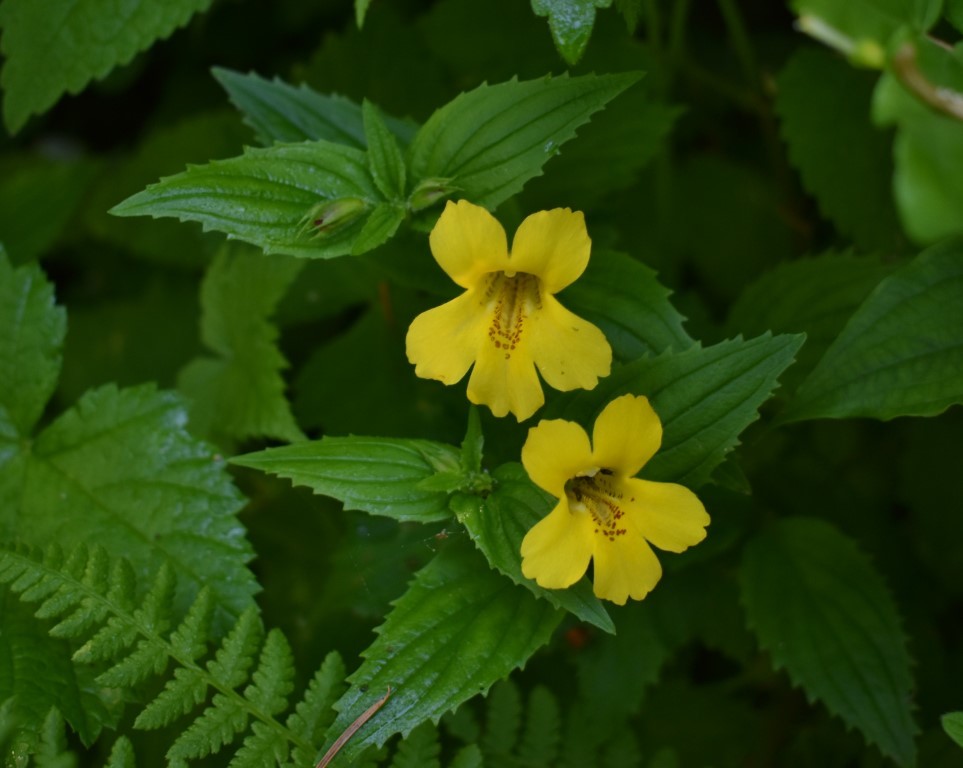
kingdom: Plantae
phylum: Tracheophyta
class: Magnoliopsida
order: Lamiales
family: Phrymaceae
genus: Erythranthe
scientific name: Erythranthe dentata
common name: Coastal monkeyflower
